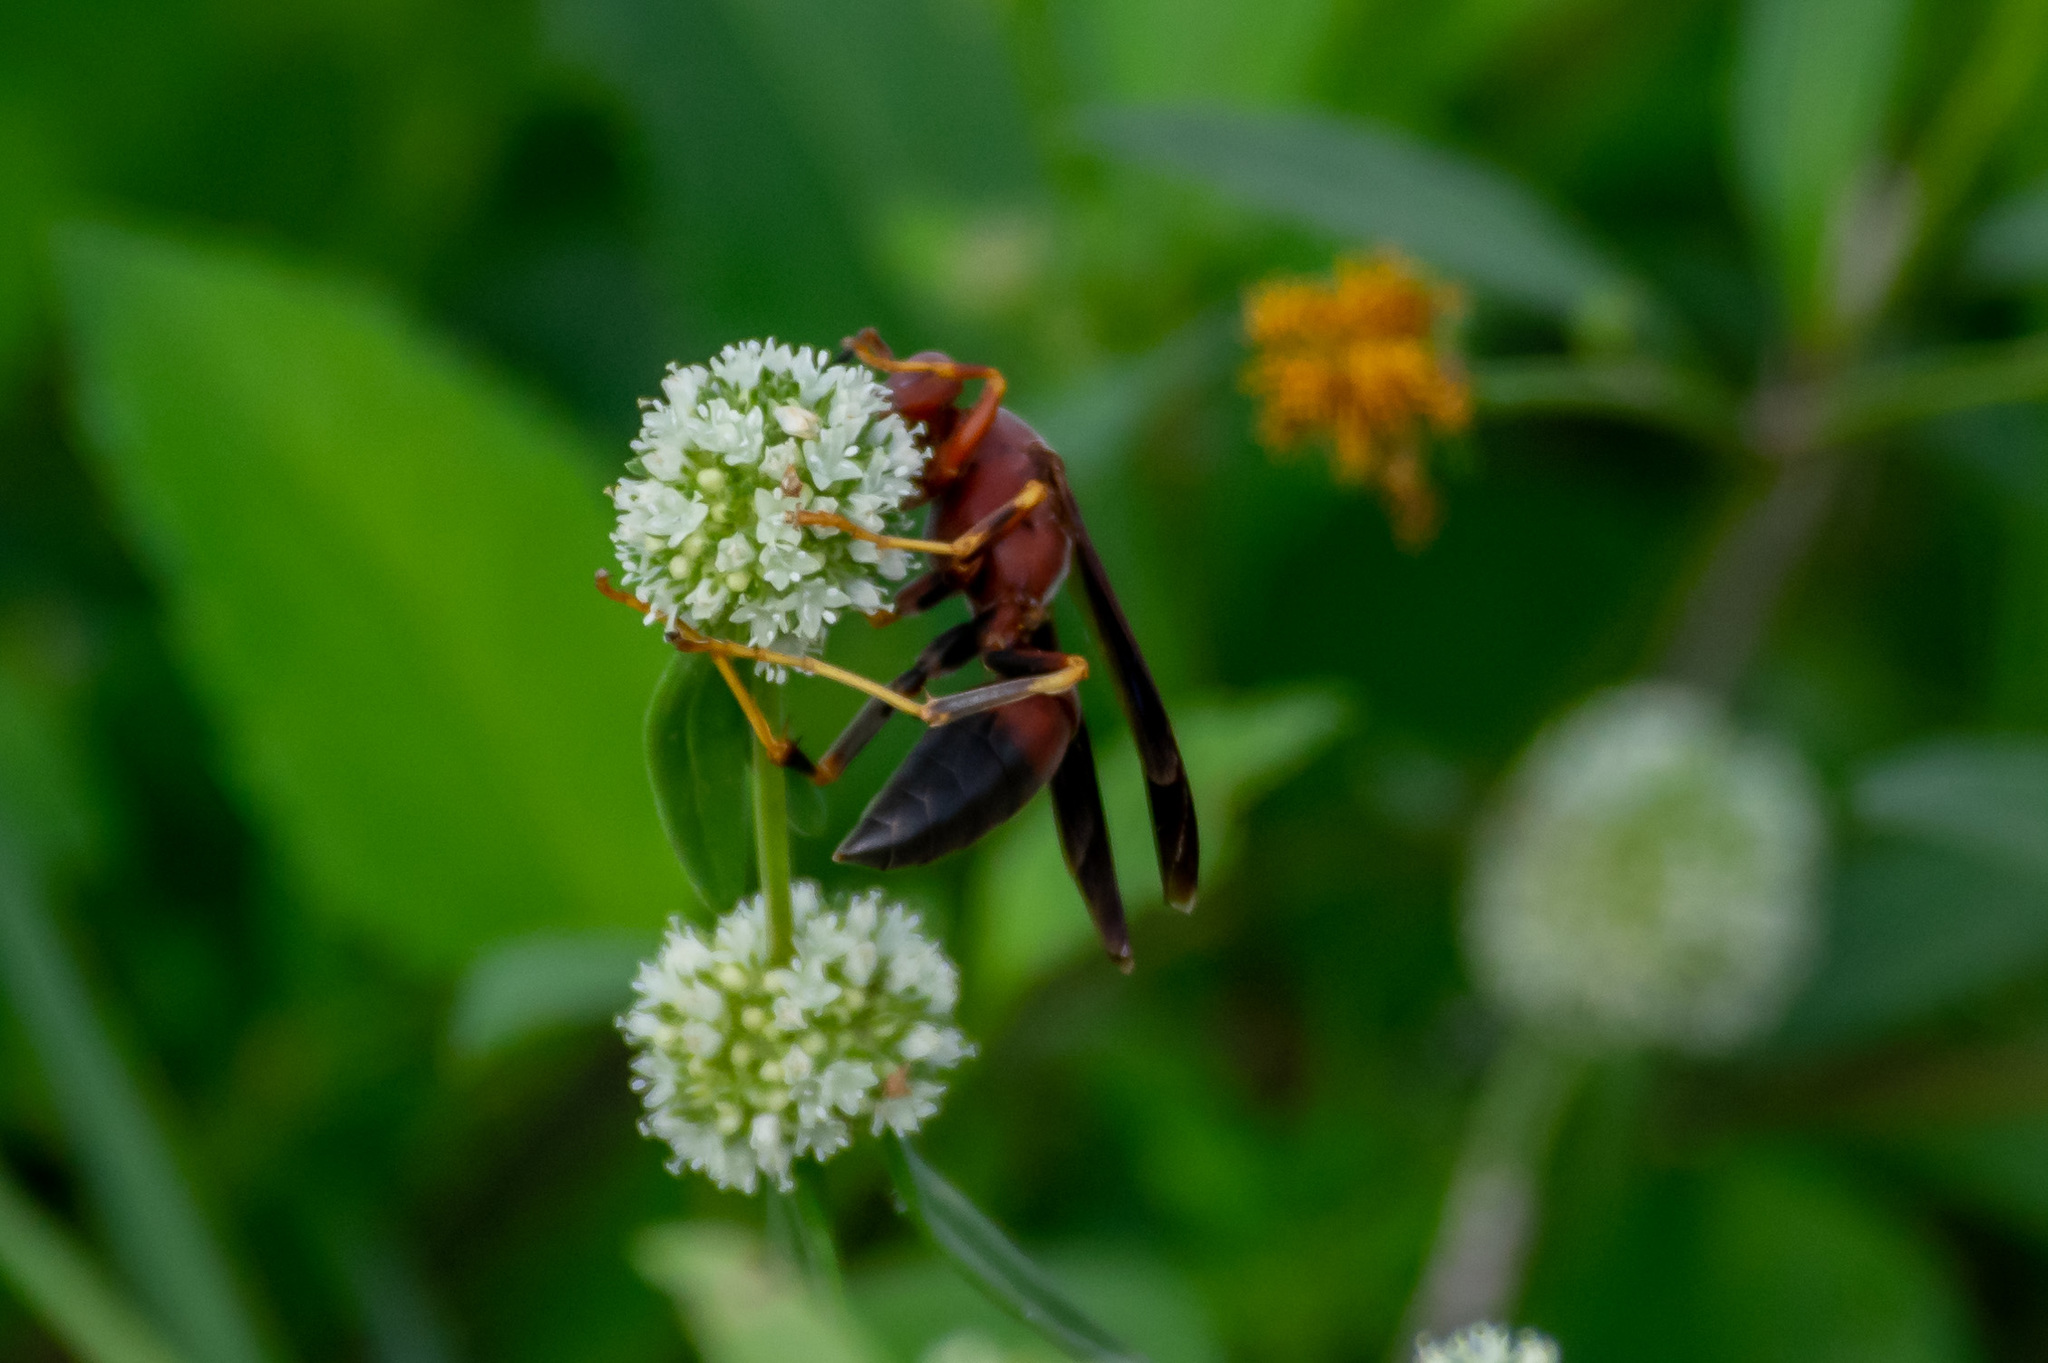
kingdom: Animalia
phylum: Arthropoda
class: Insecta
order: Hymenoptera
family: Eumenidae
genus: Polistes
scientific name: Polistes metricus
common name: Metric paper wasp
